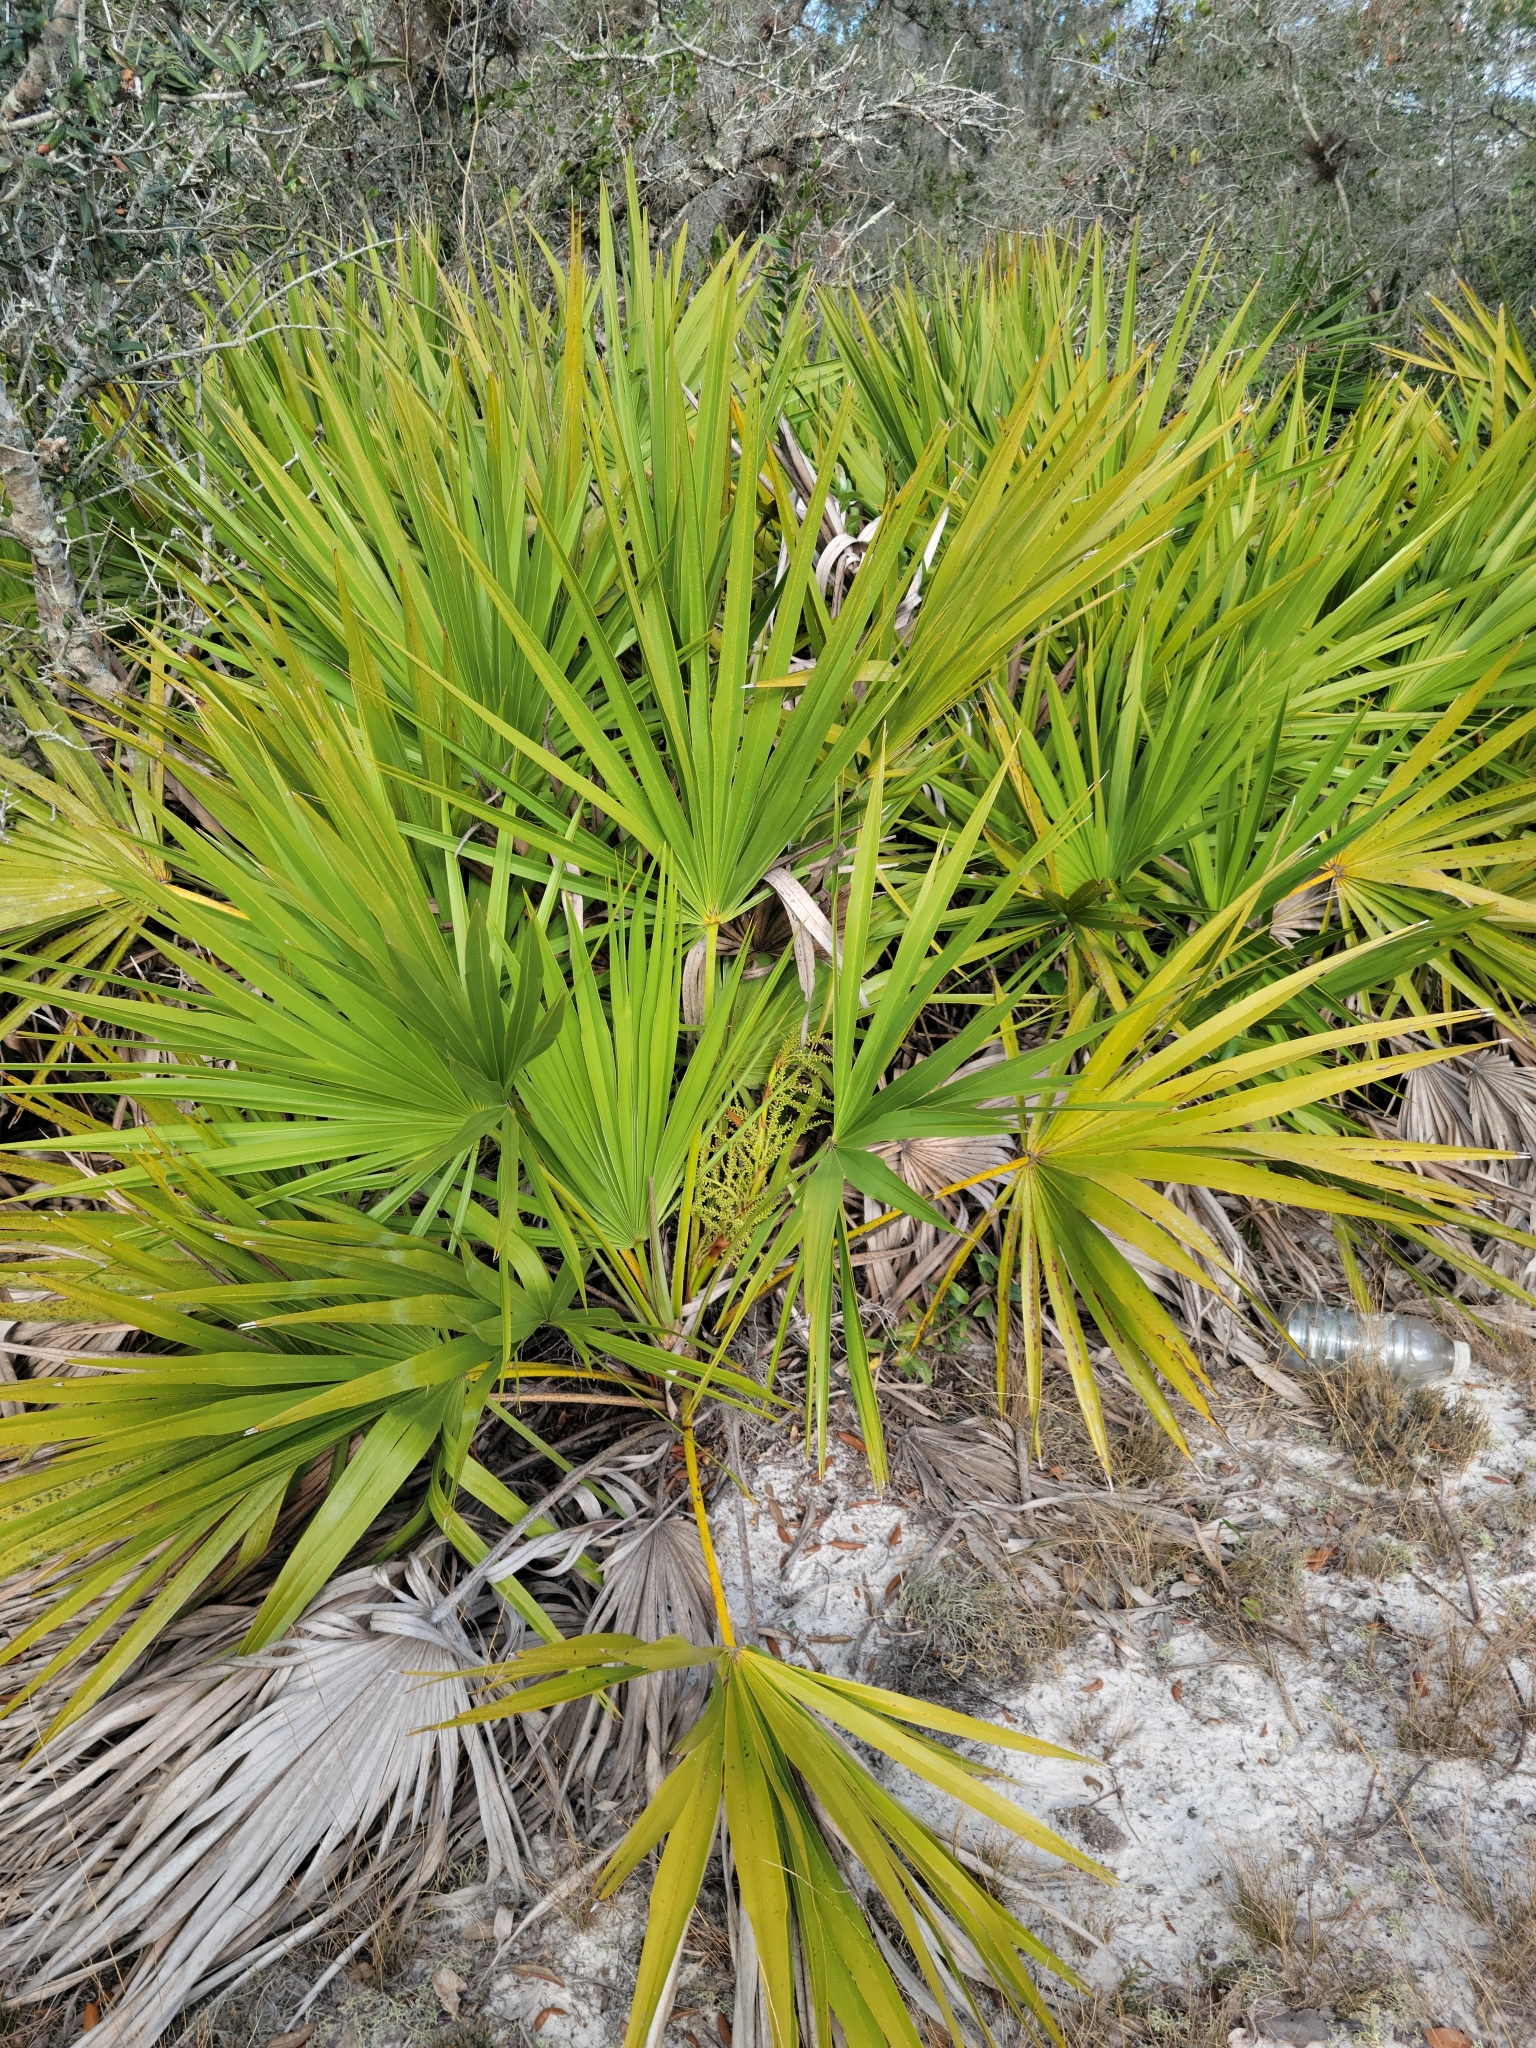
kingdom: Plantae
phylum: Tracheophyta
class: Liliopsida
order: Arecales
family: Arecaceae
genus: Serenoa
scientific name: Serenoa repens
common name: Saw-palmetto
